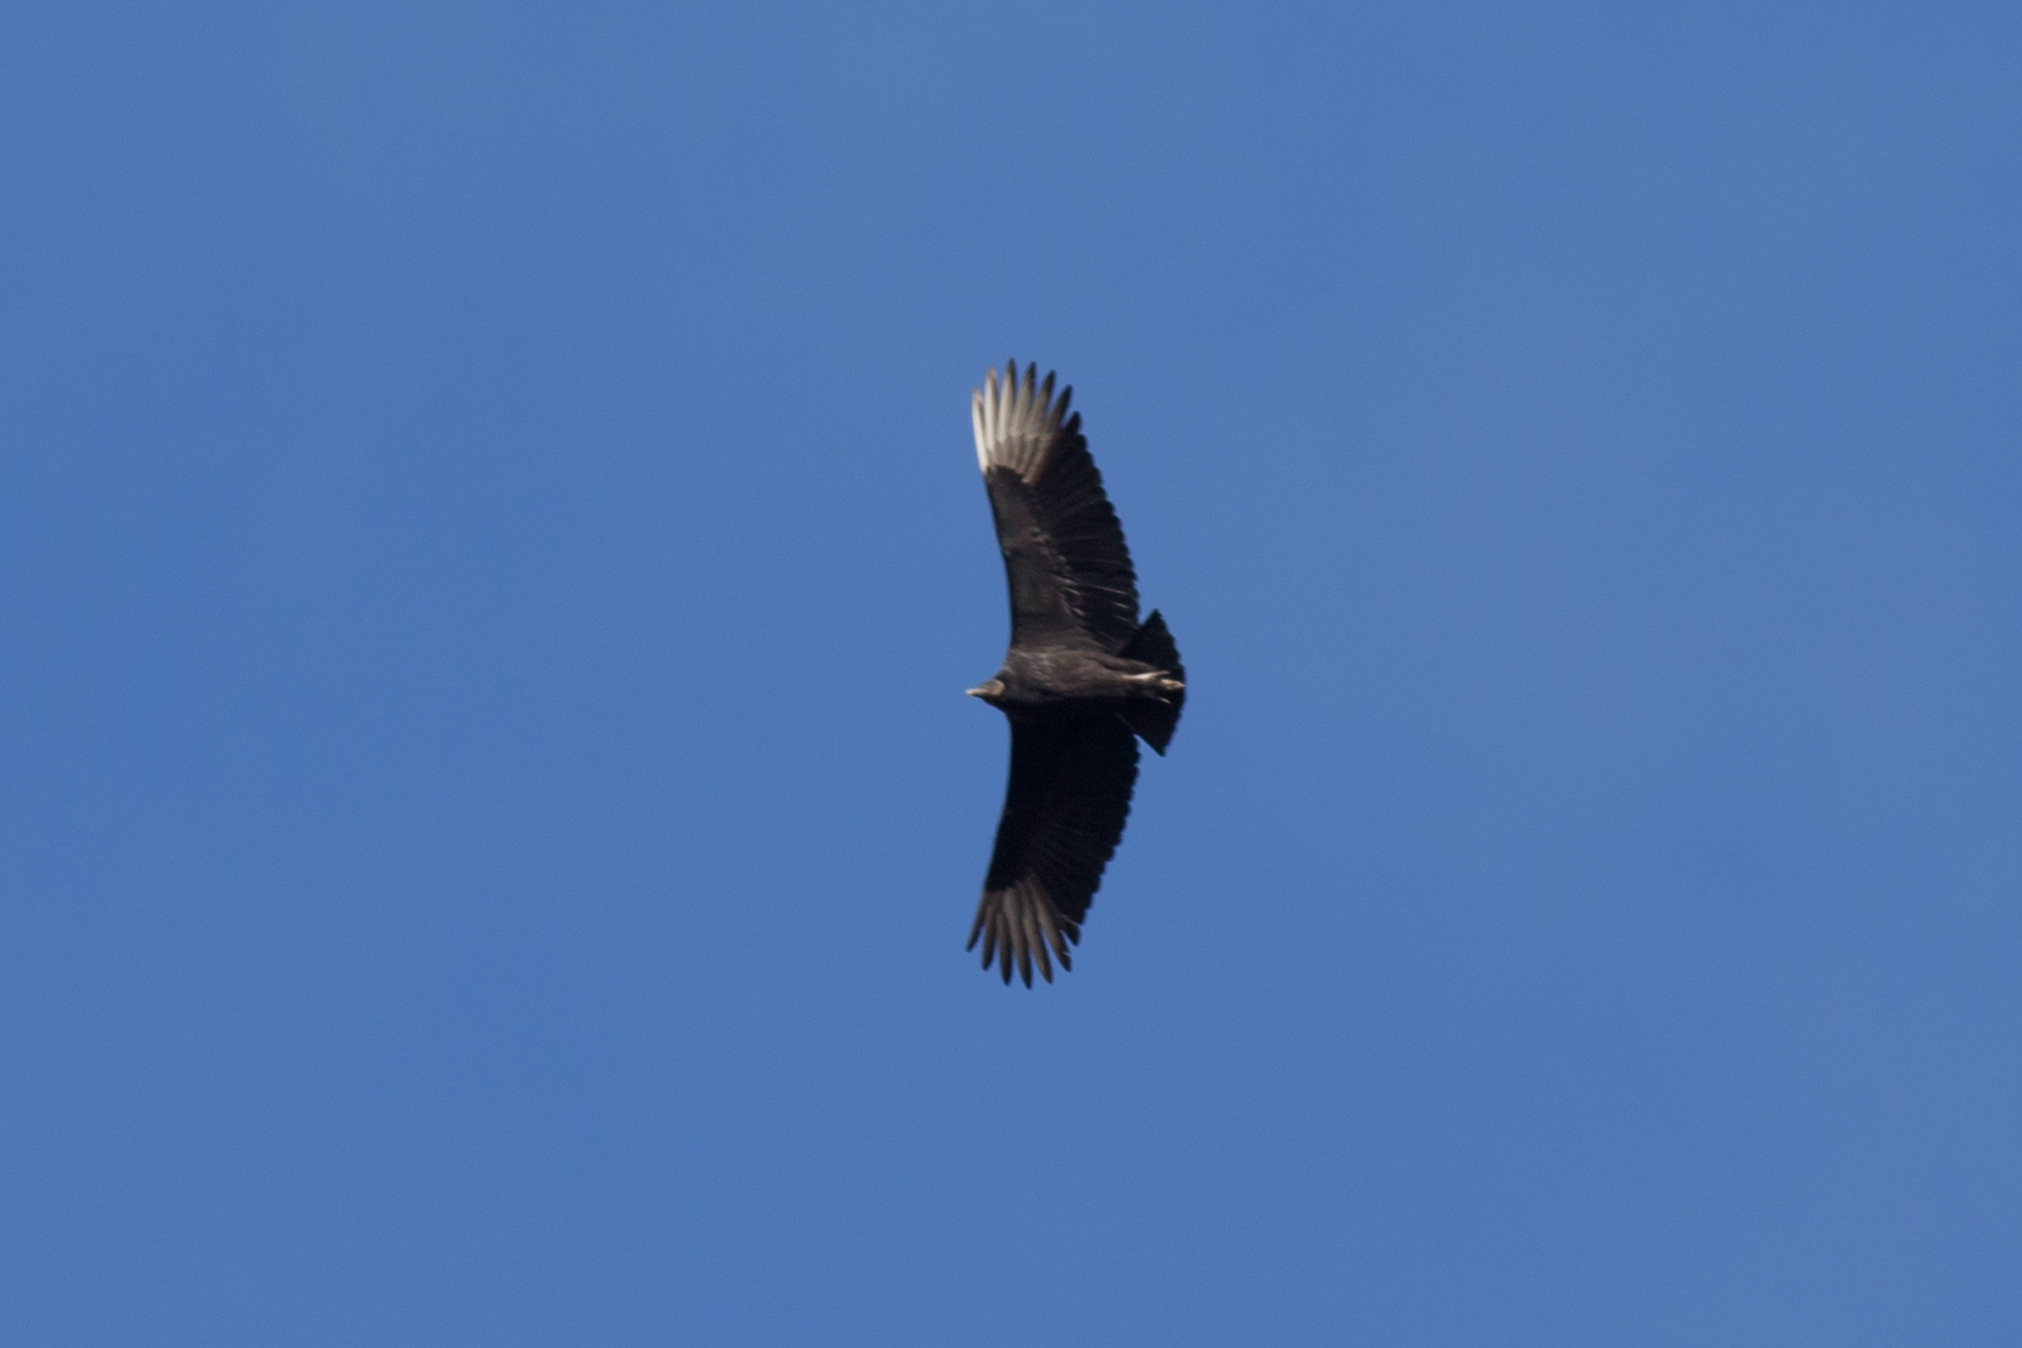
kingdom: Animalia
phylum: Chordata
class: Aves
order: Accipitriformes
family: Cathartidae
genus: Coragyps
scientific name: Coragyps atratus
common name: Black vulture
